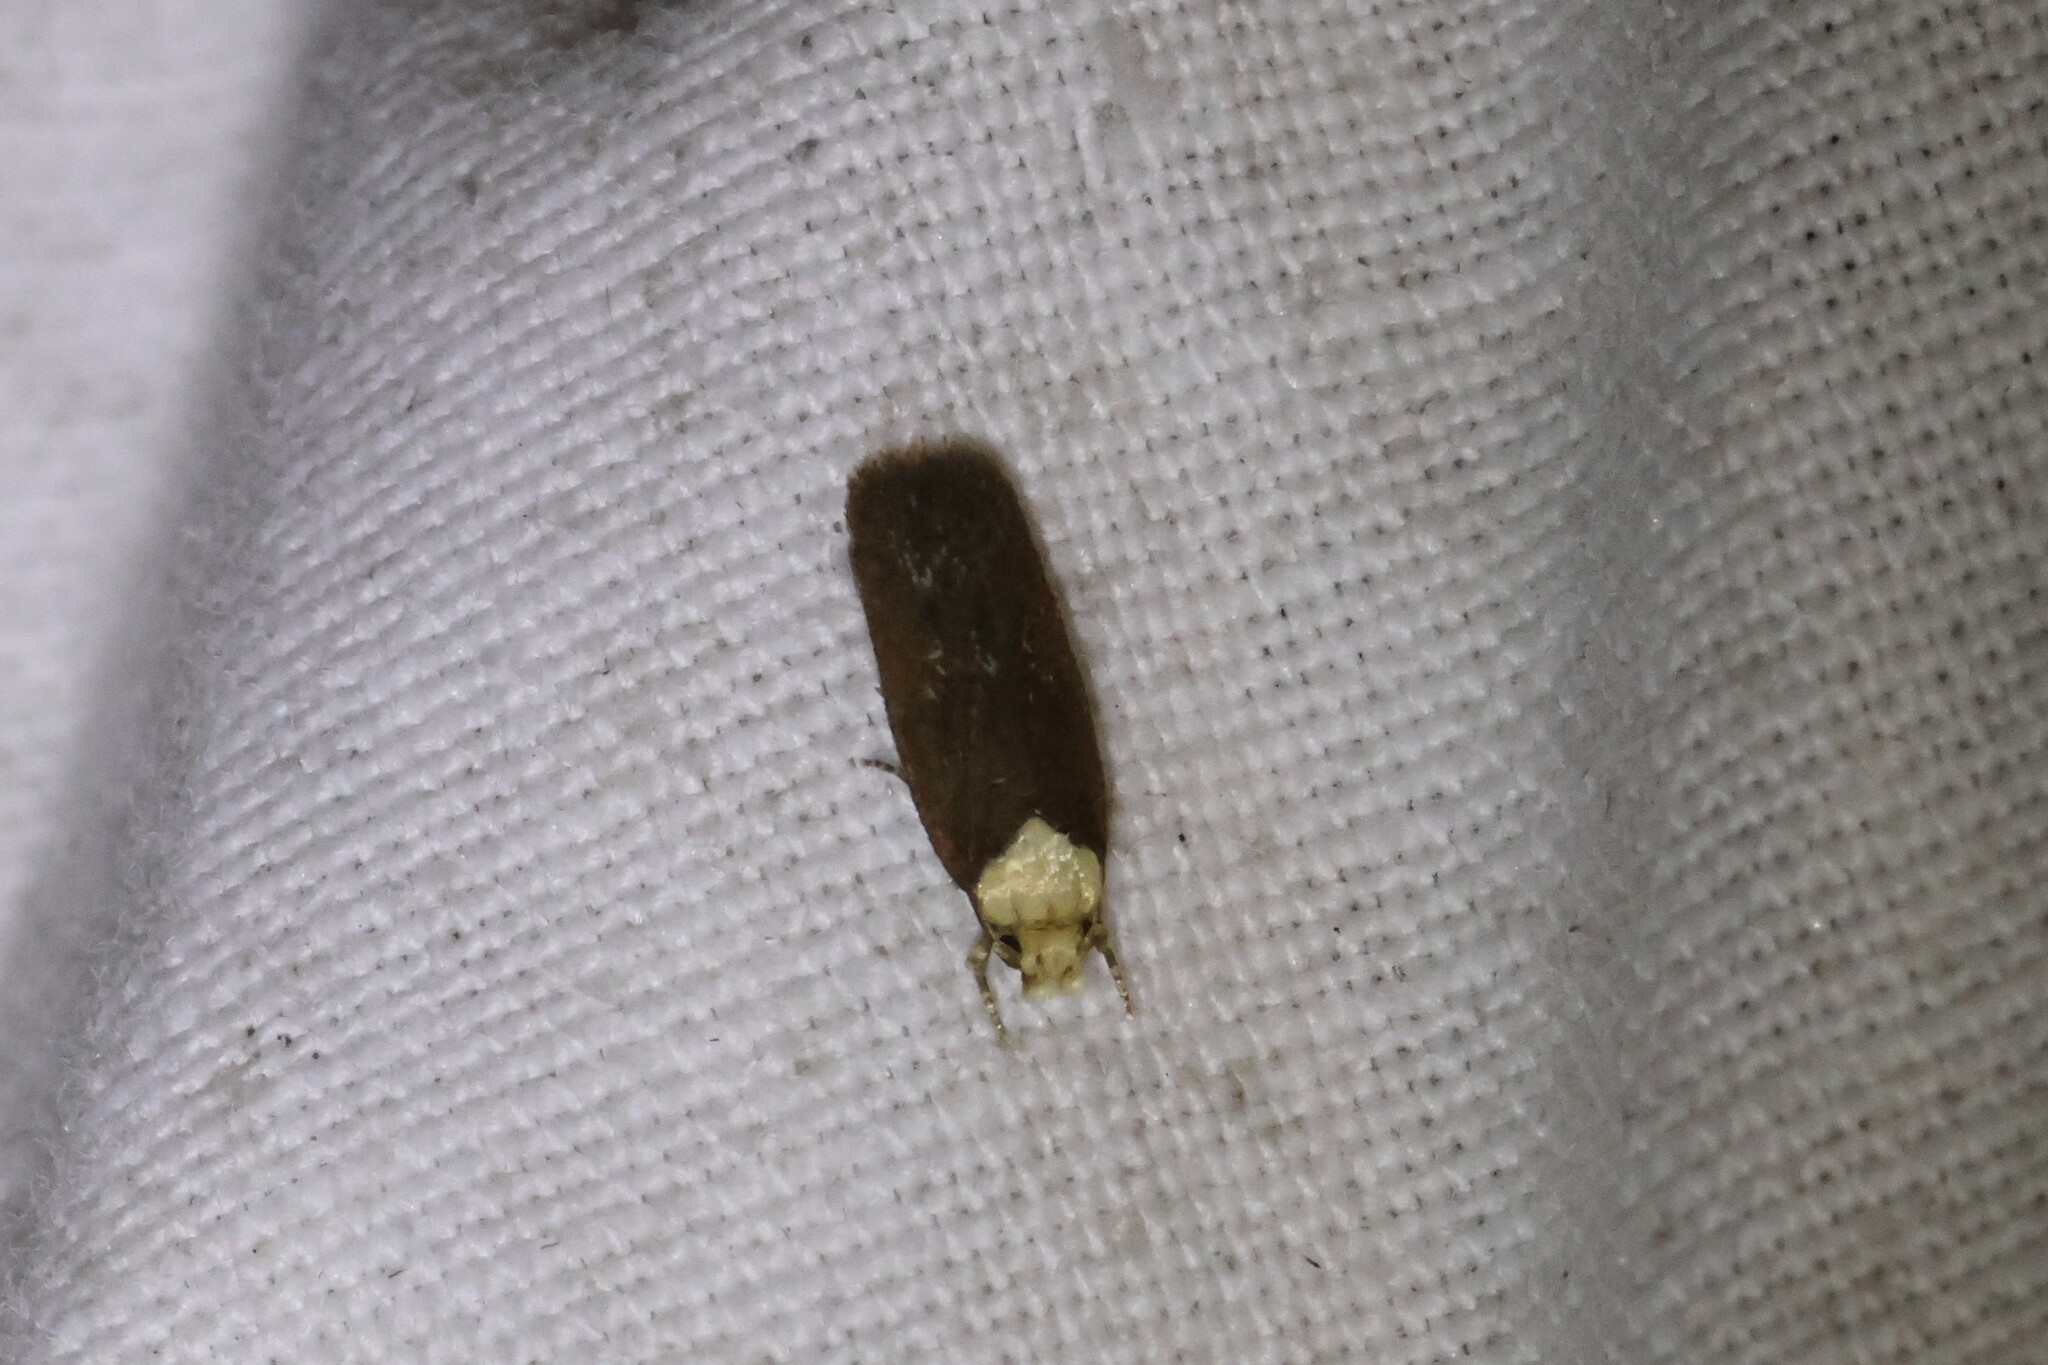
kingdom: Animalia
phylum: Arthropoda
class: Insecta
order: Lepidoptera
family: Depressariidae
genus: Depressaria
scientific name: Depressaria depressana
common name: Lost flat-body
